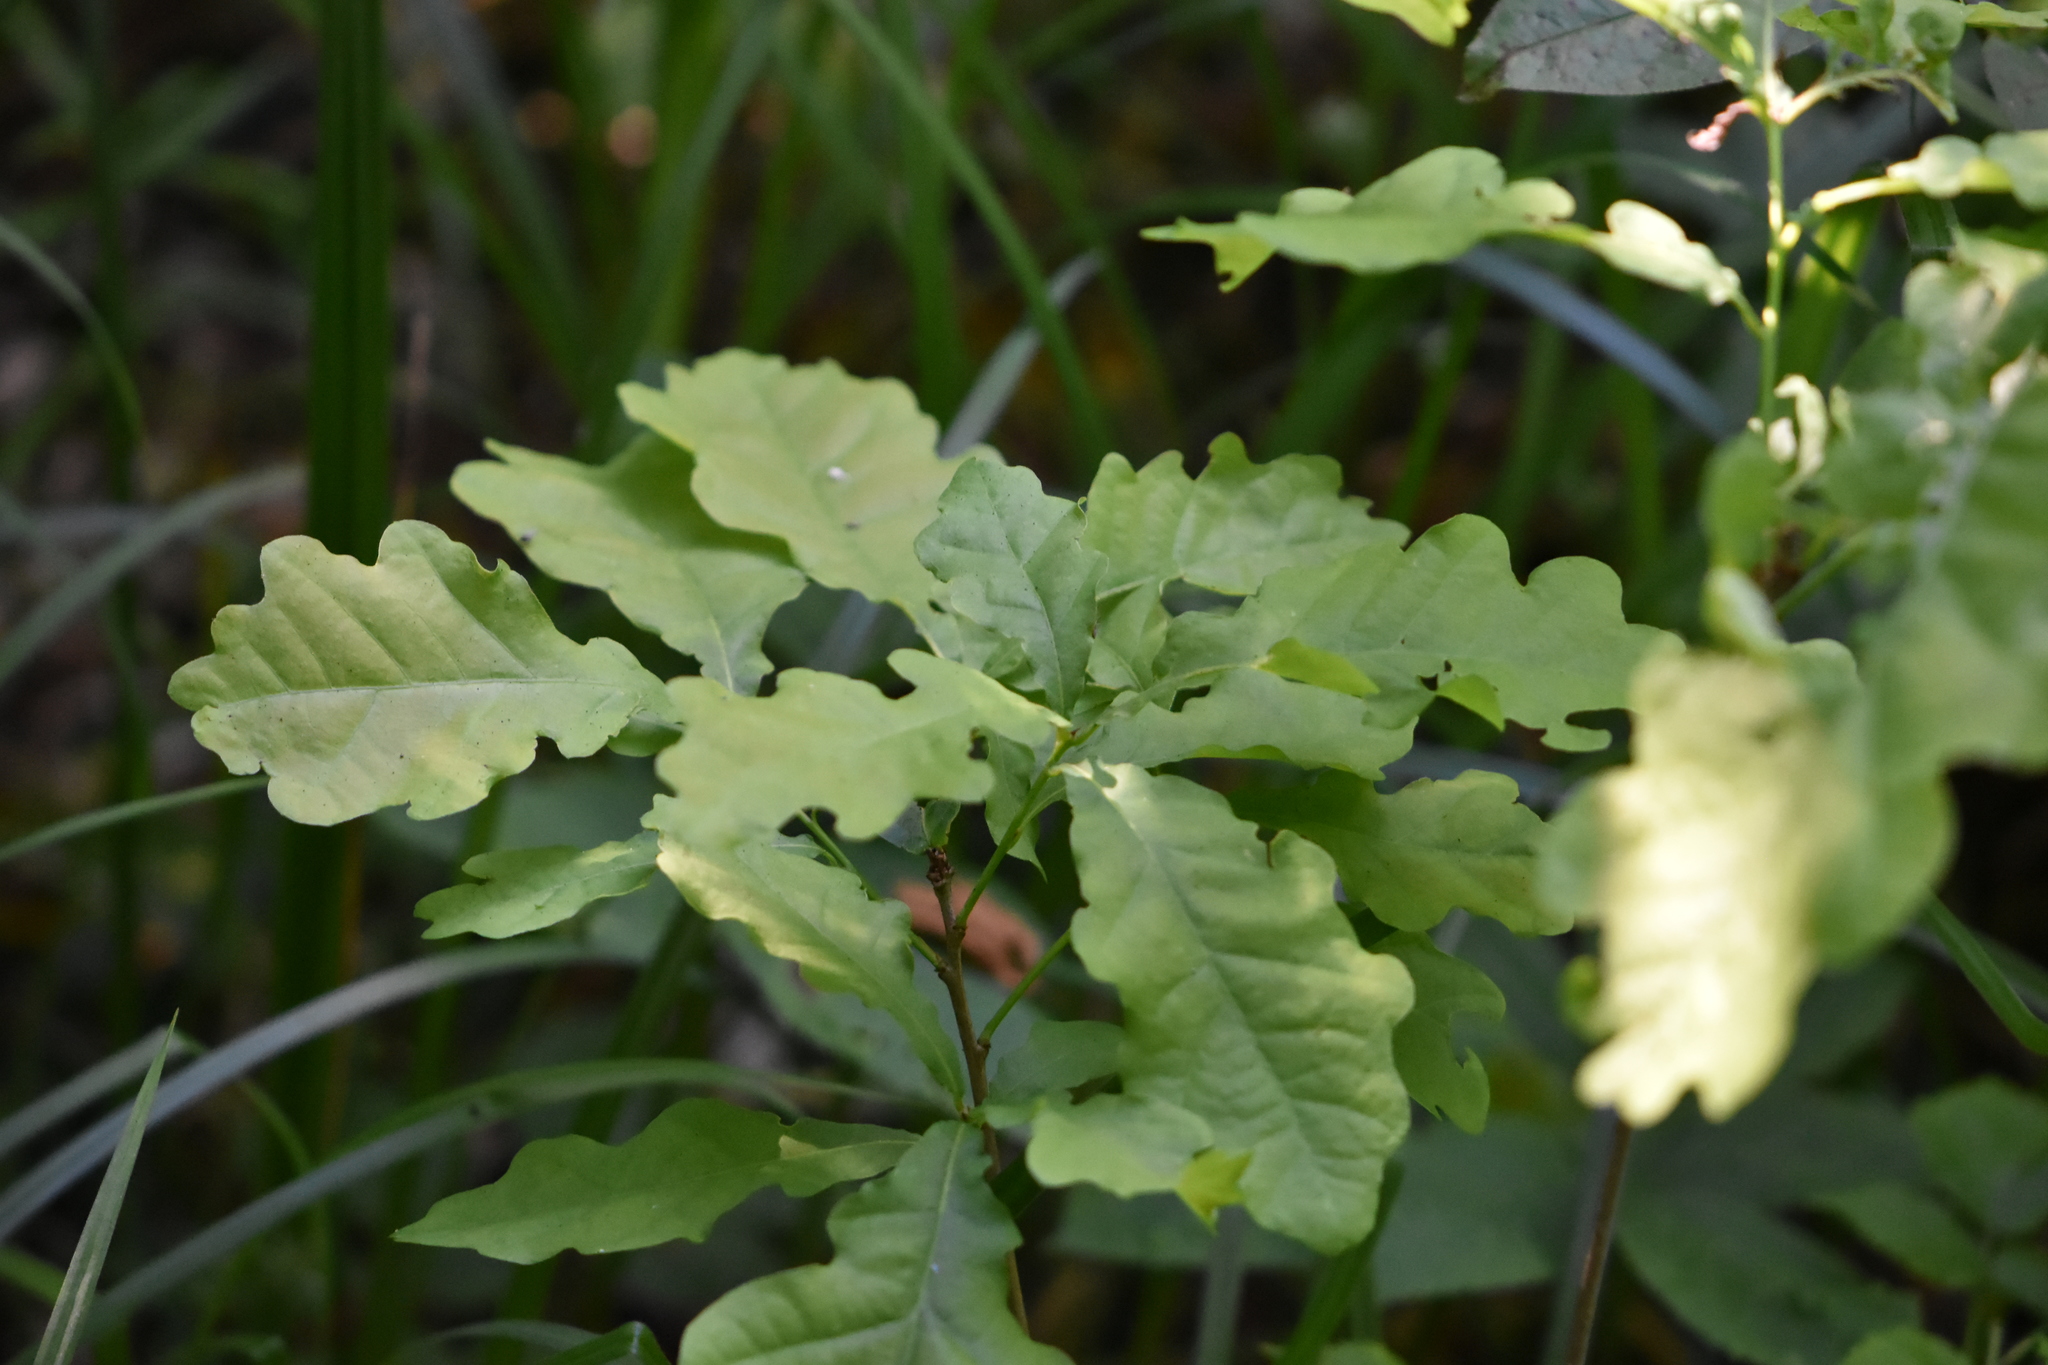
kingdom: Plantae
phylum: Tracheophyta
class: Magnoliopsida
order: Fagales
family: Fagaceae
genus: Quercus
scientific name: Quercus robur
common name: Pedunculate oak
